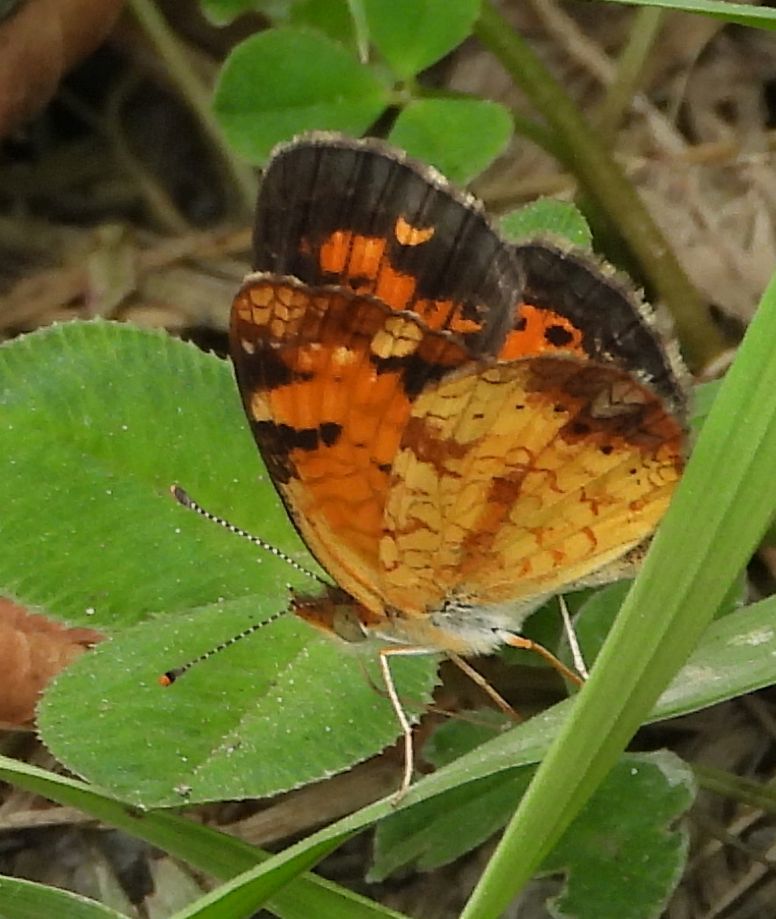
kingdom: Animalia
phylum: Arthropoda
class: Insecta
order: Lepidoptera
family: Nymphalidae
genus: Phyciodes
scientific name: Phyciodes tharos
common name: Pearl crescent
